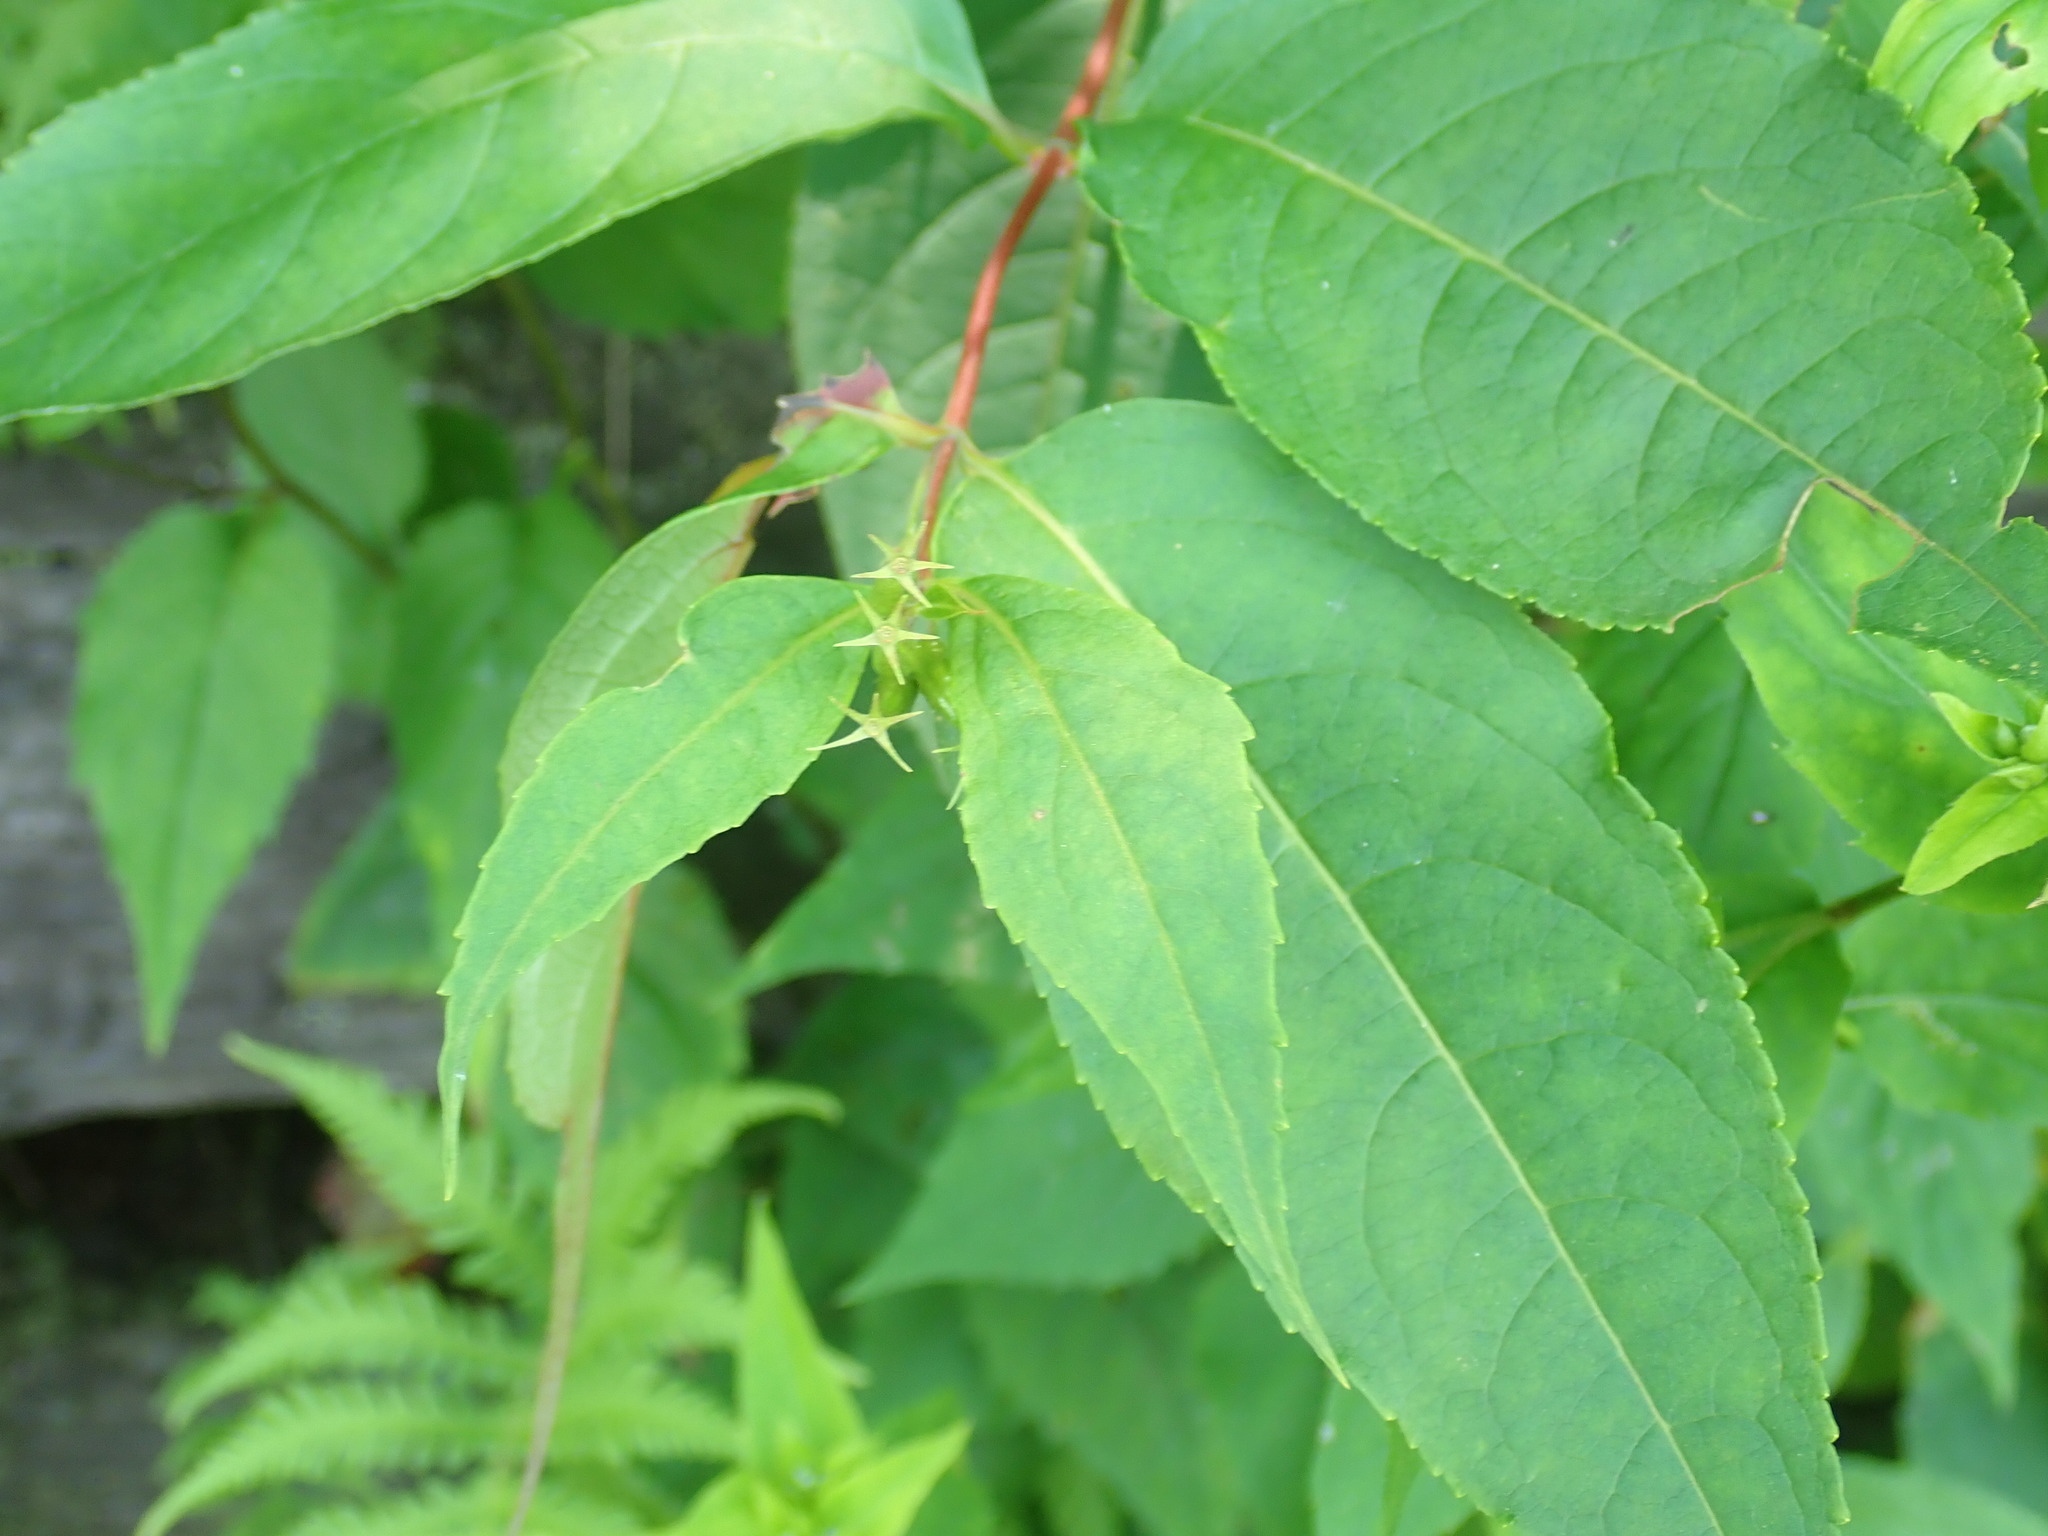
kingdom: Plantae
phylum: Tracheophyta
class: Magnoliopsida
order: Dipsacales
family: Caprifoliaceae
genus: Diervilla
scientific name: Diervilla lonicera
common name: Bush-honeysuckle
